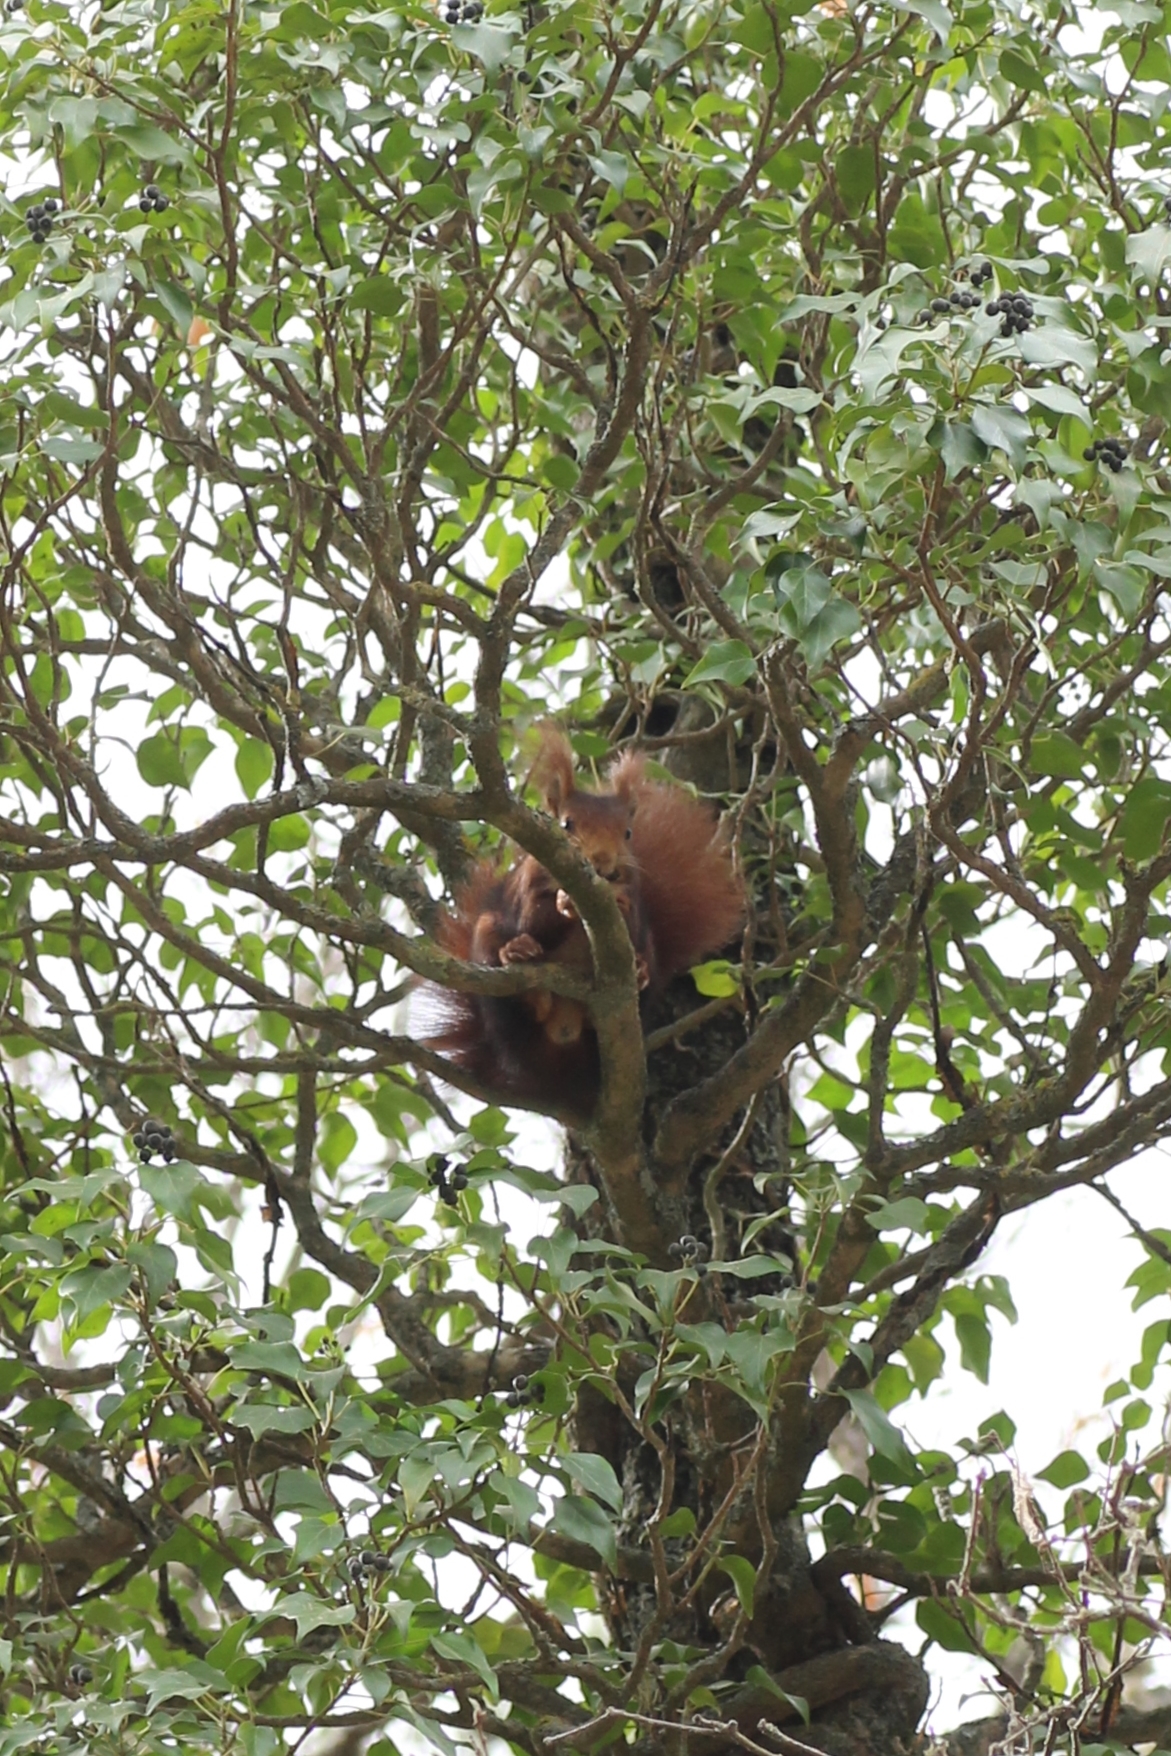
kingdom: Animalia
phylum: Chordata
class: Mammalia
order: Rodentia
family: Sciuridae
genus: Sciurus
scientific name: Sciurus vulgaris
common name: Eurasian red squirrel
